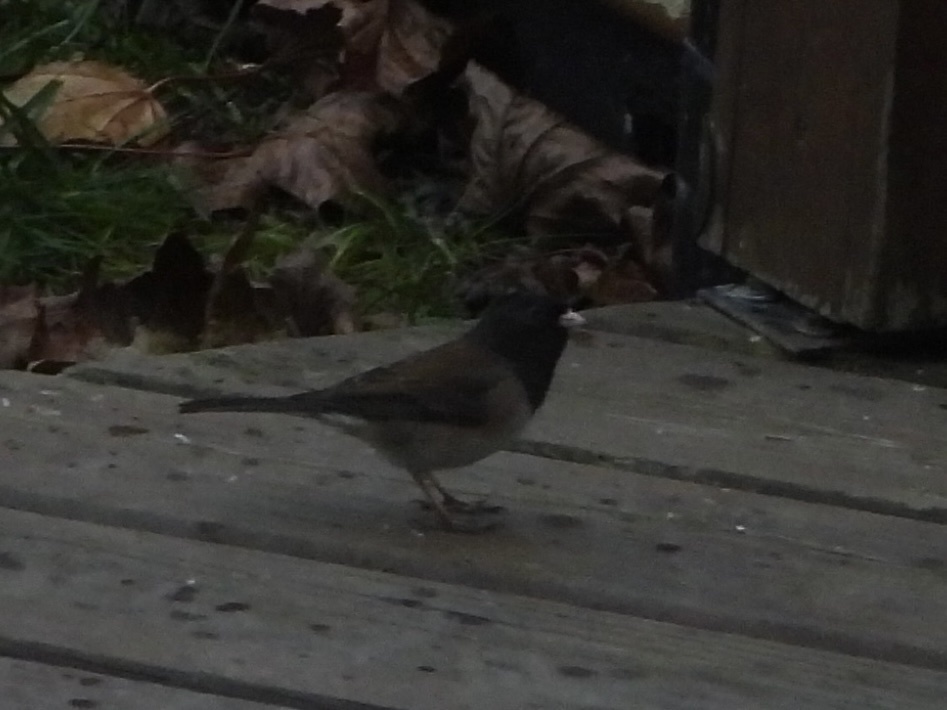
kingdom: Animalia
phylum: Chordata
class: Aves
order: Passeriformes
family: Passerellidae
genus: Junco
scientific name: Junco hyemalis
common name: Dark-eyed junco
